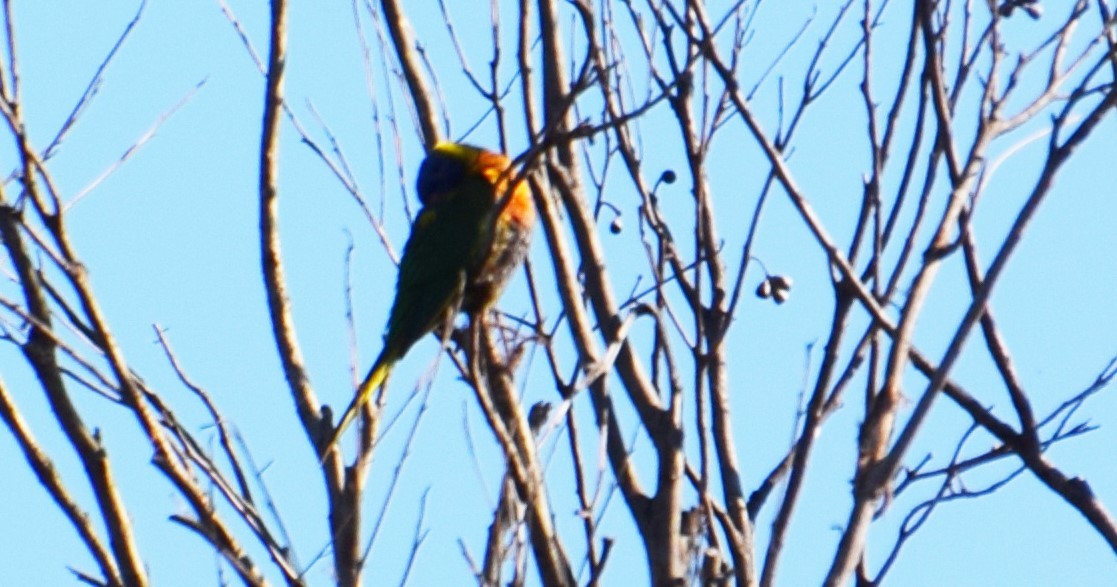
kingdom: Animalia
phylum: Chordata
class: Aves
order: Psittaciformes
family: Psittacidae
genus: Trichoglossus
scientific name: Trichoglossus haematodus
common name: Coconut lorikeet
